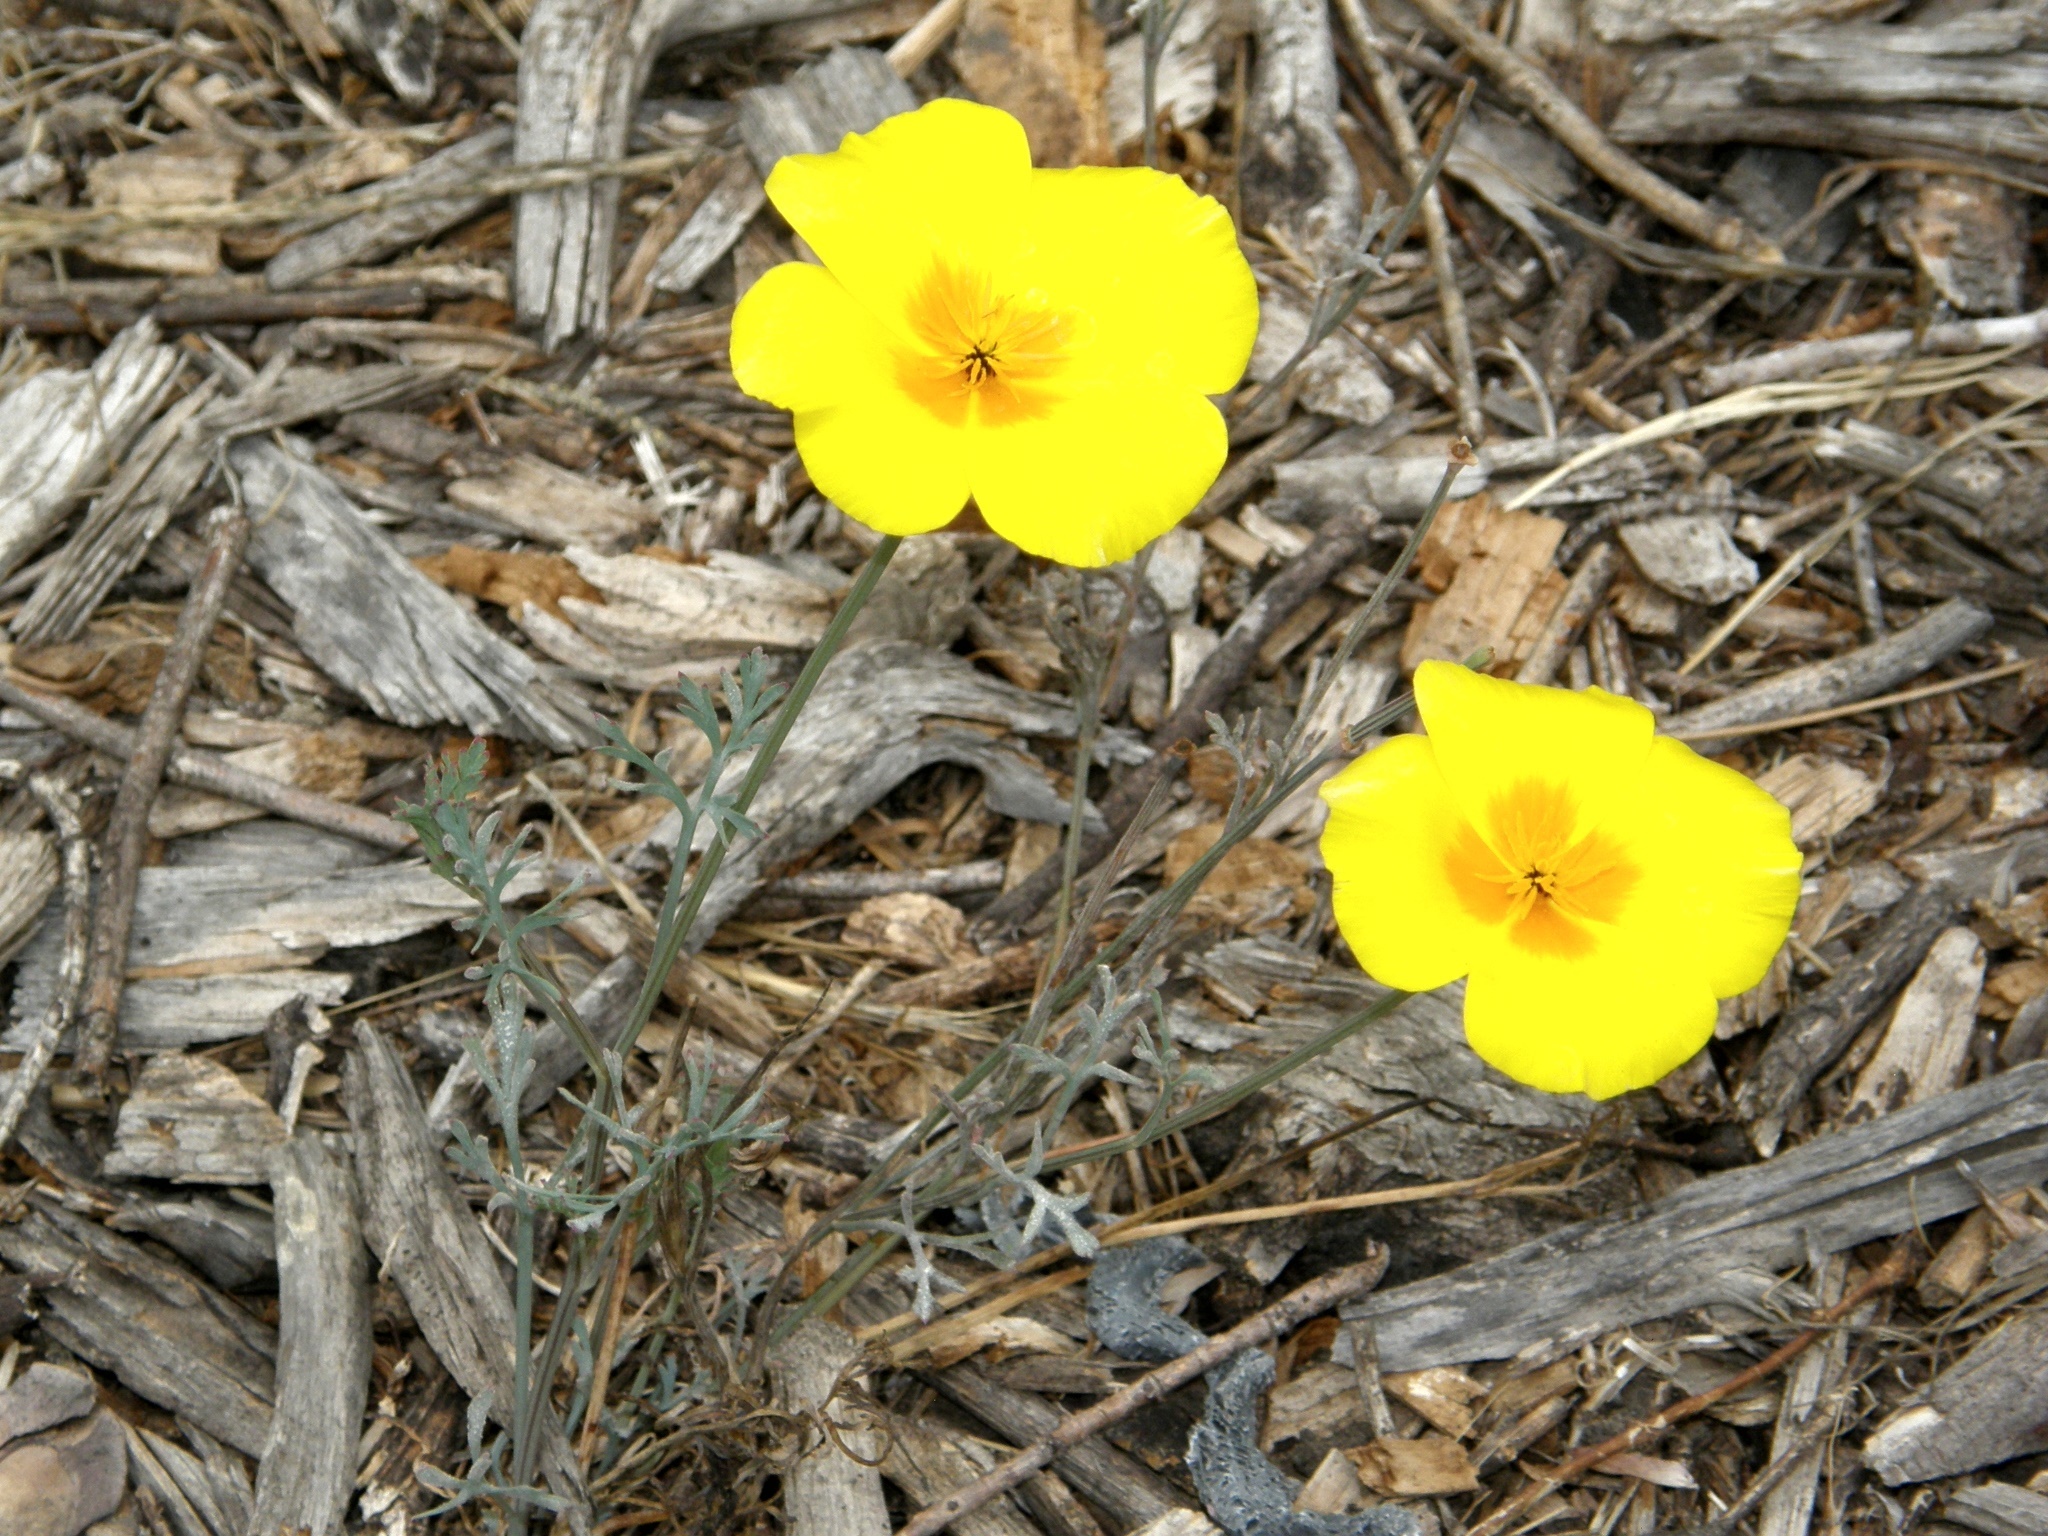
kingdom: Plantae
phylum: Tracheophyta
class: Magnoliopsida
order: Ranunculales
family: Papaveraceae
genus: Eschscholzia
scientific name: Eschscholzia californica
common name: California poppy
